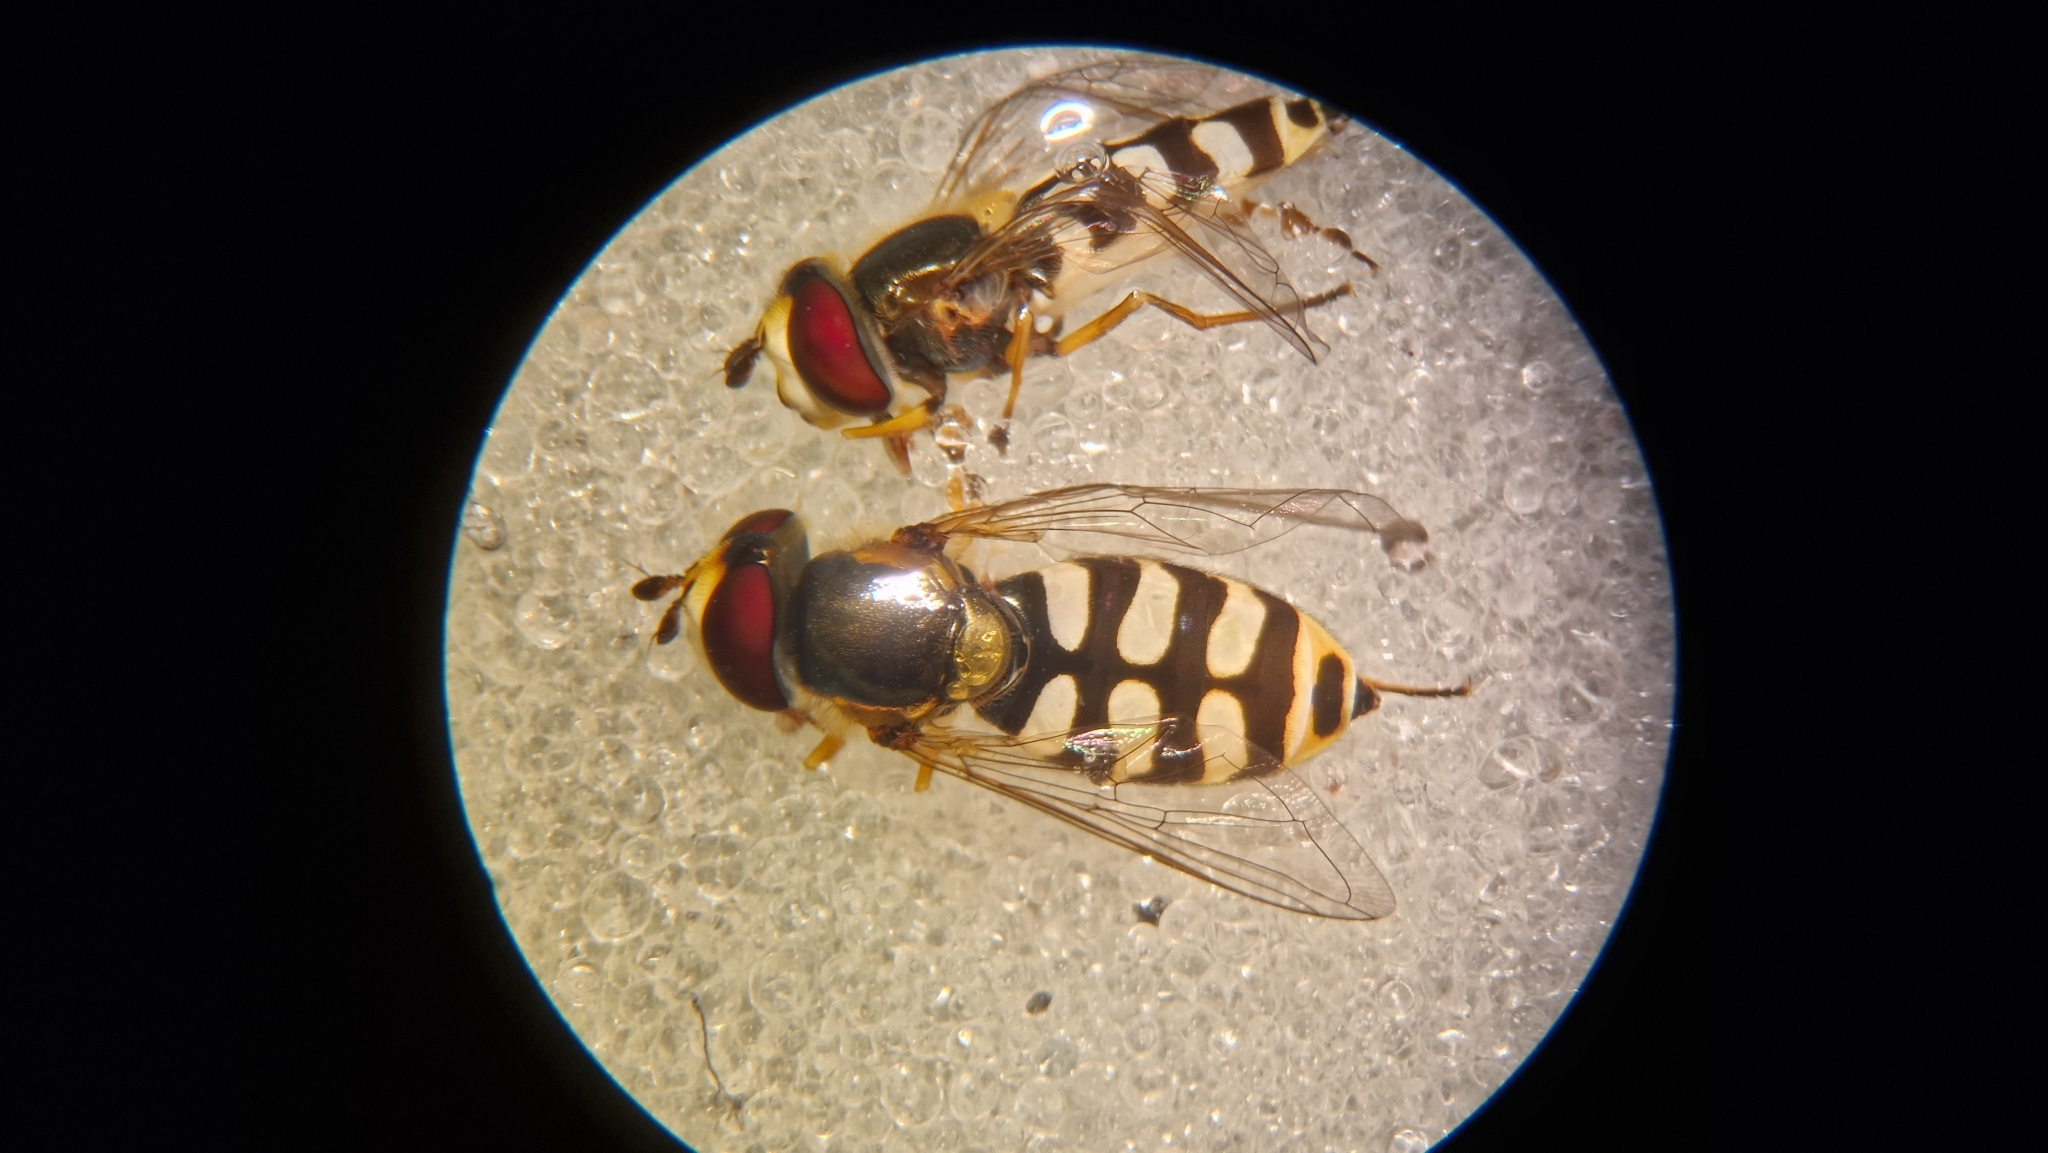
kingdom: Animalia
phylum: Arthropoda
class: Insecta
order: Diptera
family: Syrphidae
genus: Eupeodes
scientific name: Eupeodes corollae
